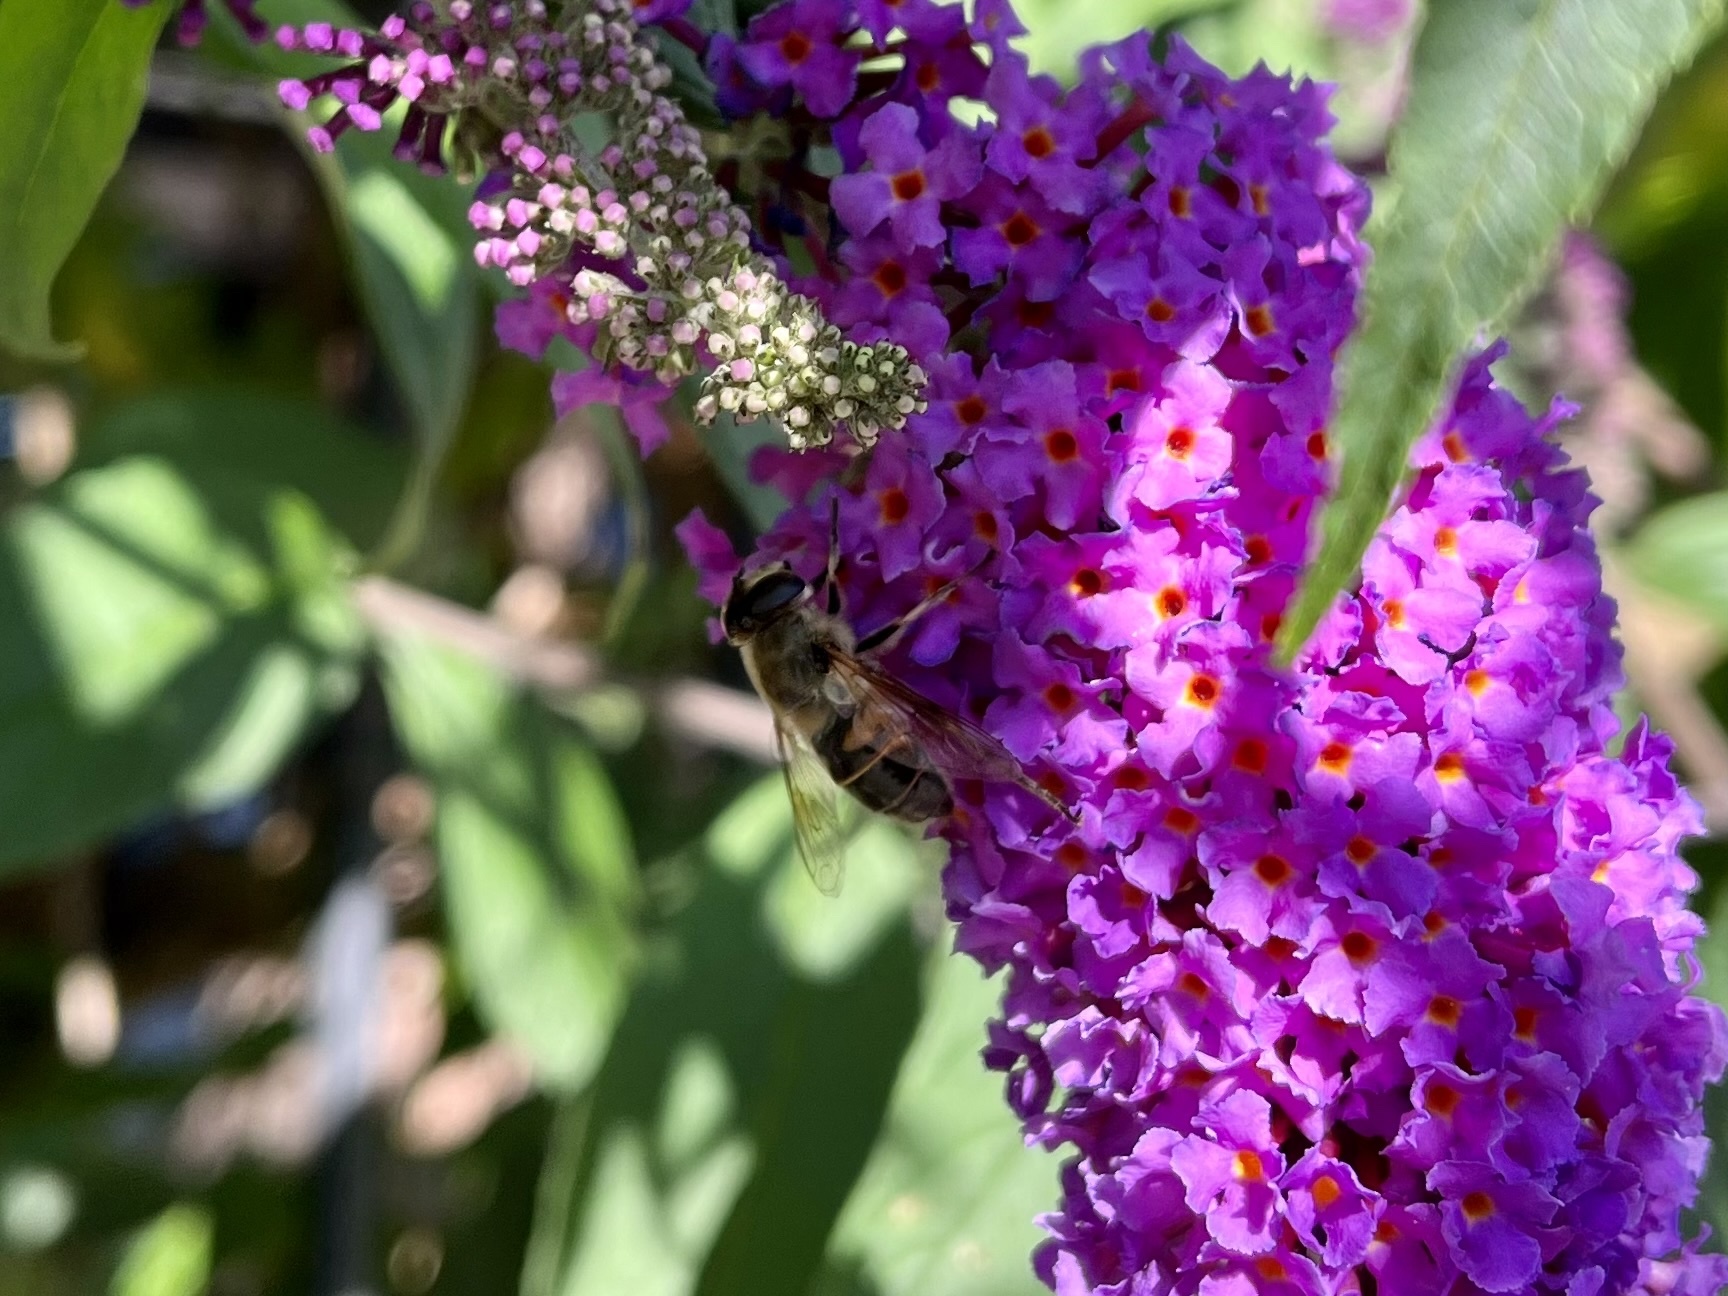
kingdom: Animalia
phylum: Arthropoda
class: Insecta
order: Diptera
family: Syrphidae
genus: Eristalis
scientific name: Eristalis tenax
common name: Drone fly
